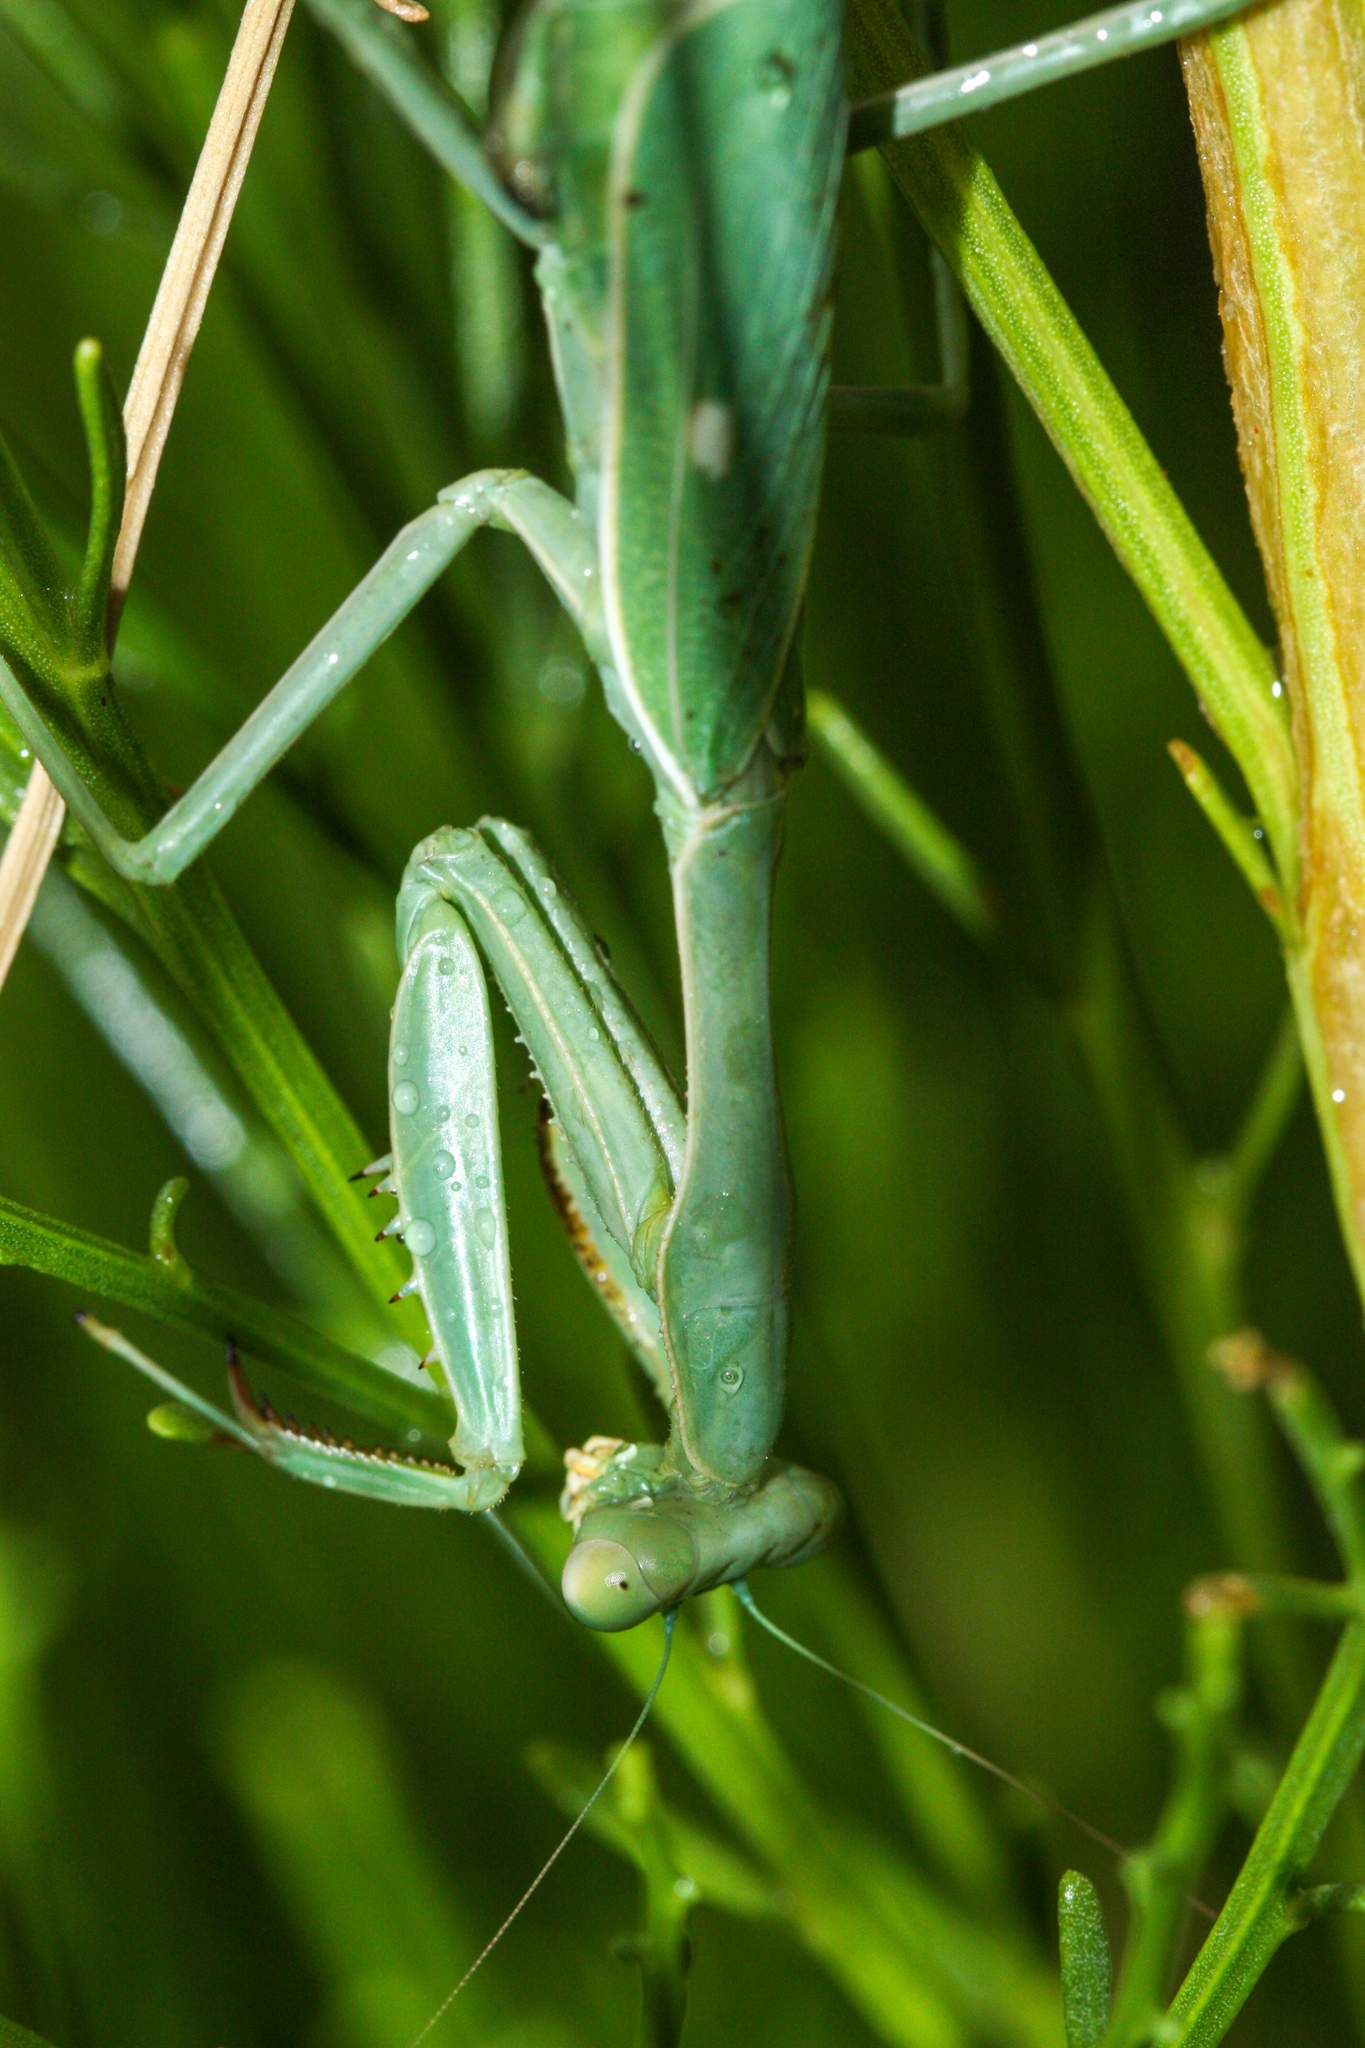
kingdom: Animalia
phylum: Arthropoda
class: Insecta
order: Mantodea
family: Mantidae
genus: Stagmomantis
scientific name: Stagmomantis limbata
